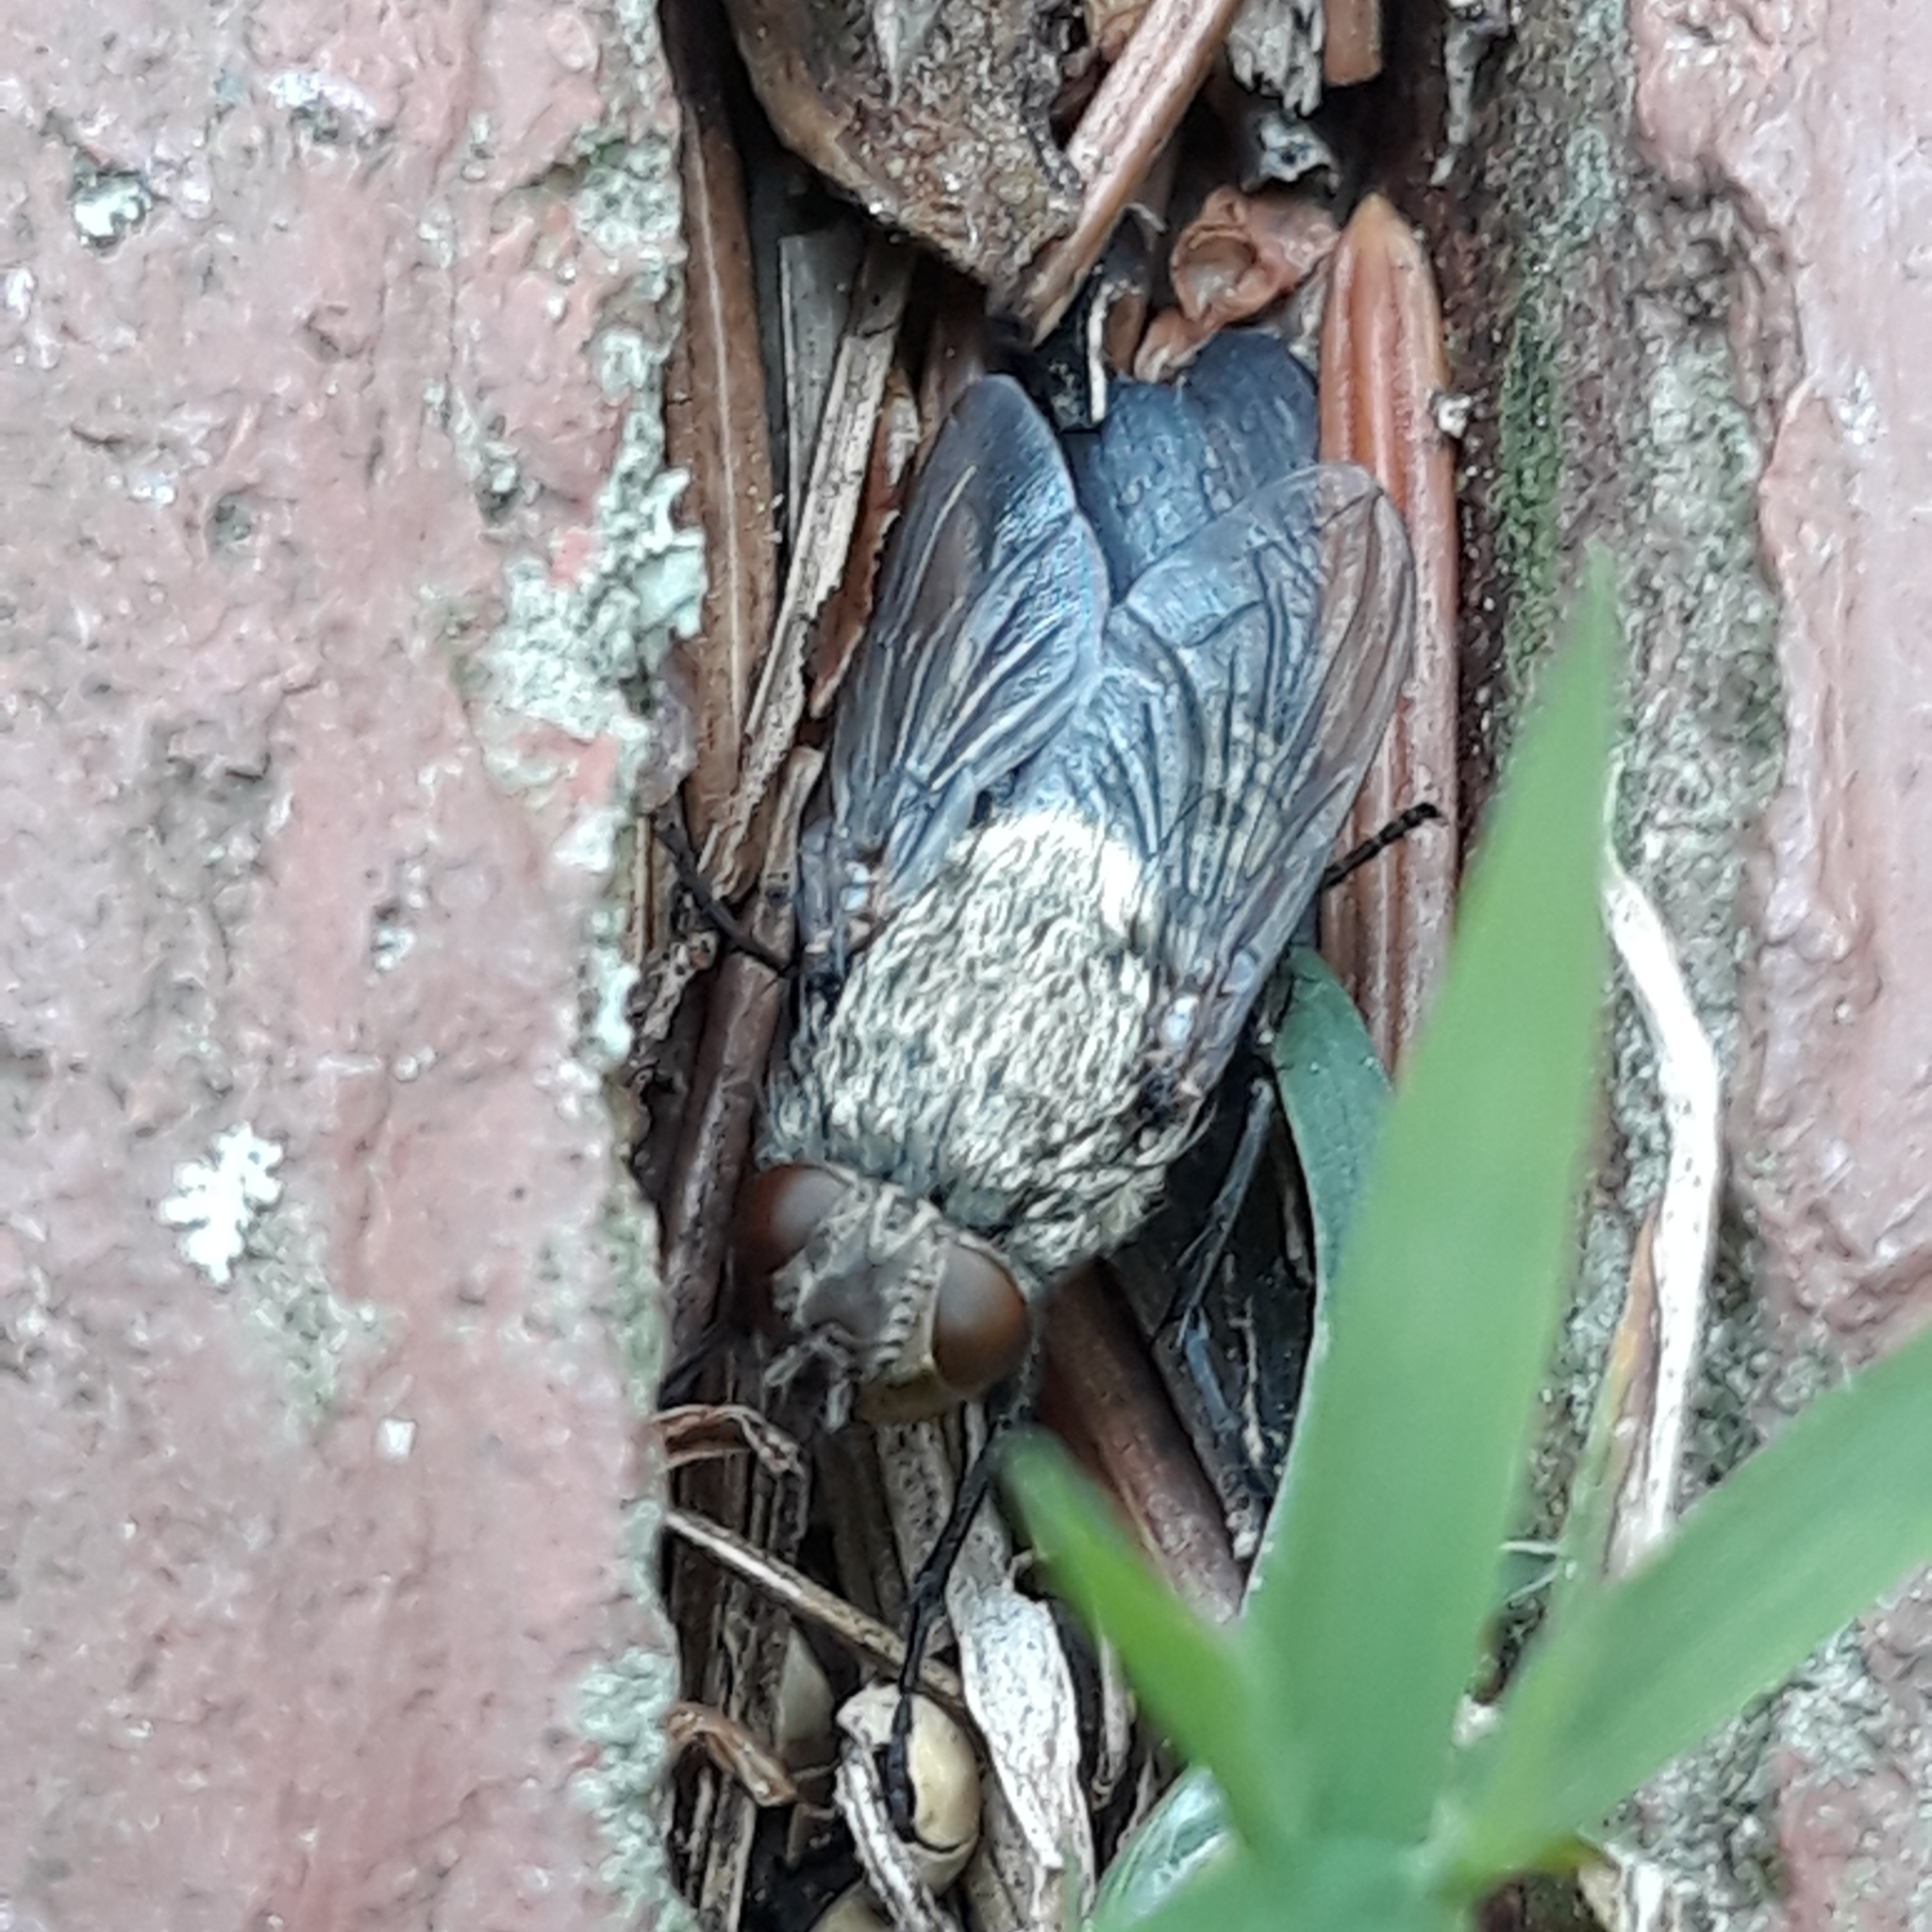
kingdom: Animalia
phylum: Arthropoda
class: Insecta
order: Diptera
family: Polleniidae
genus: Pollenia
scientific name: Pollenia
